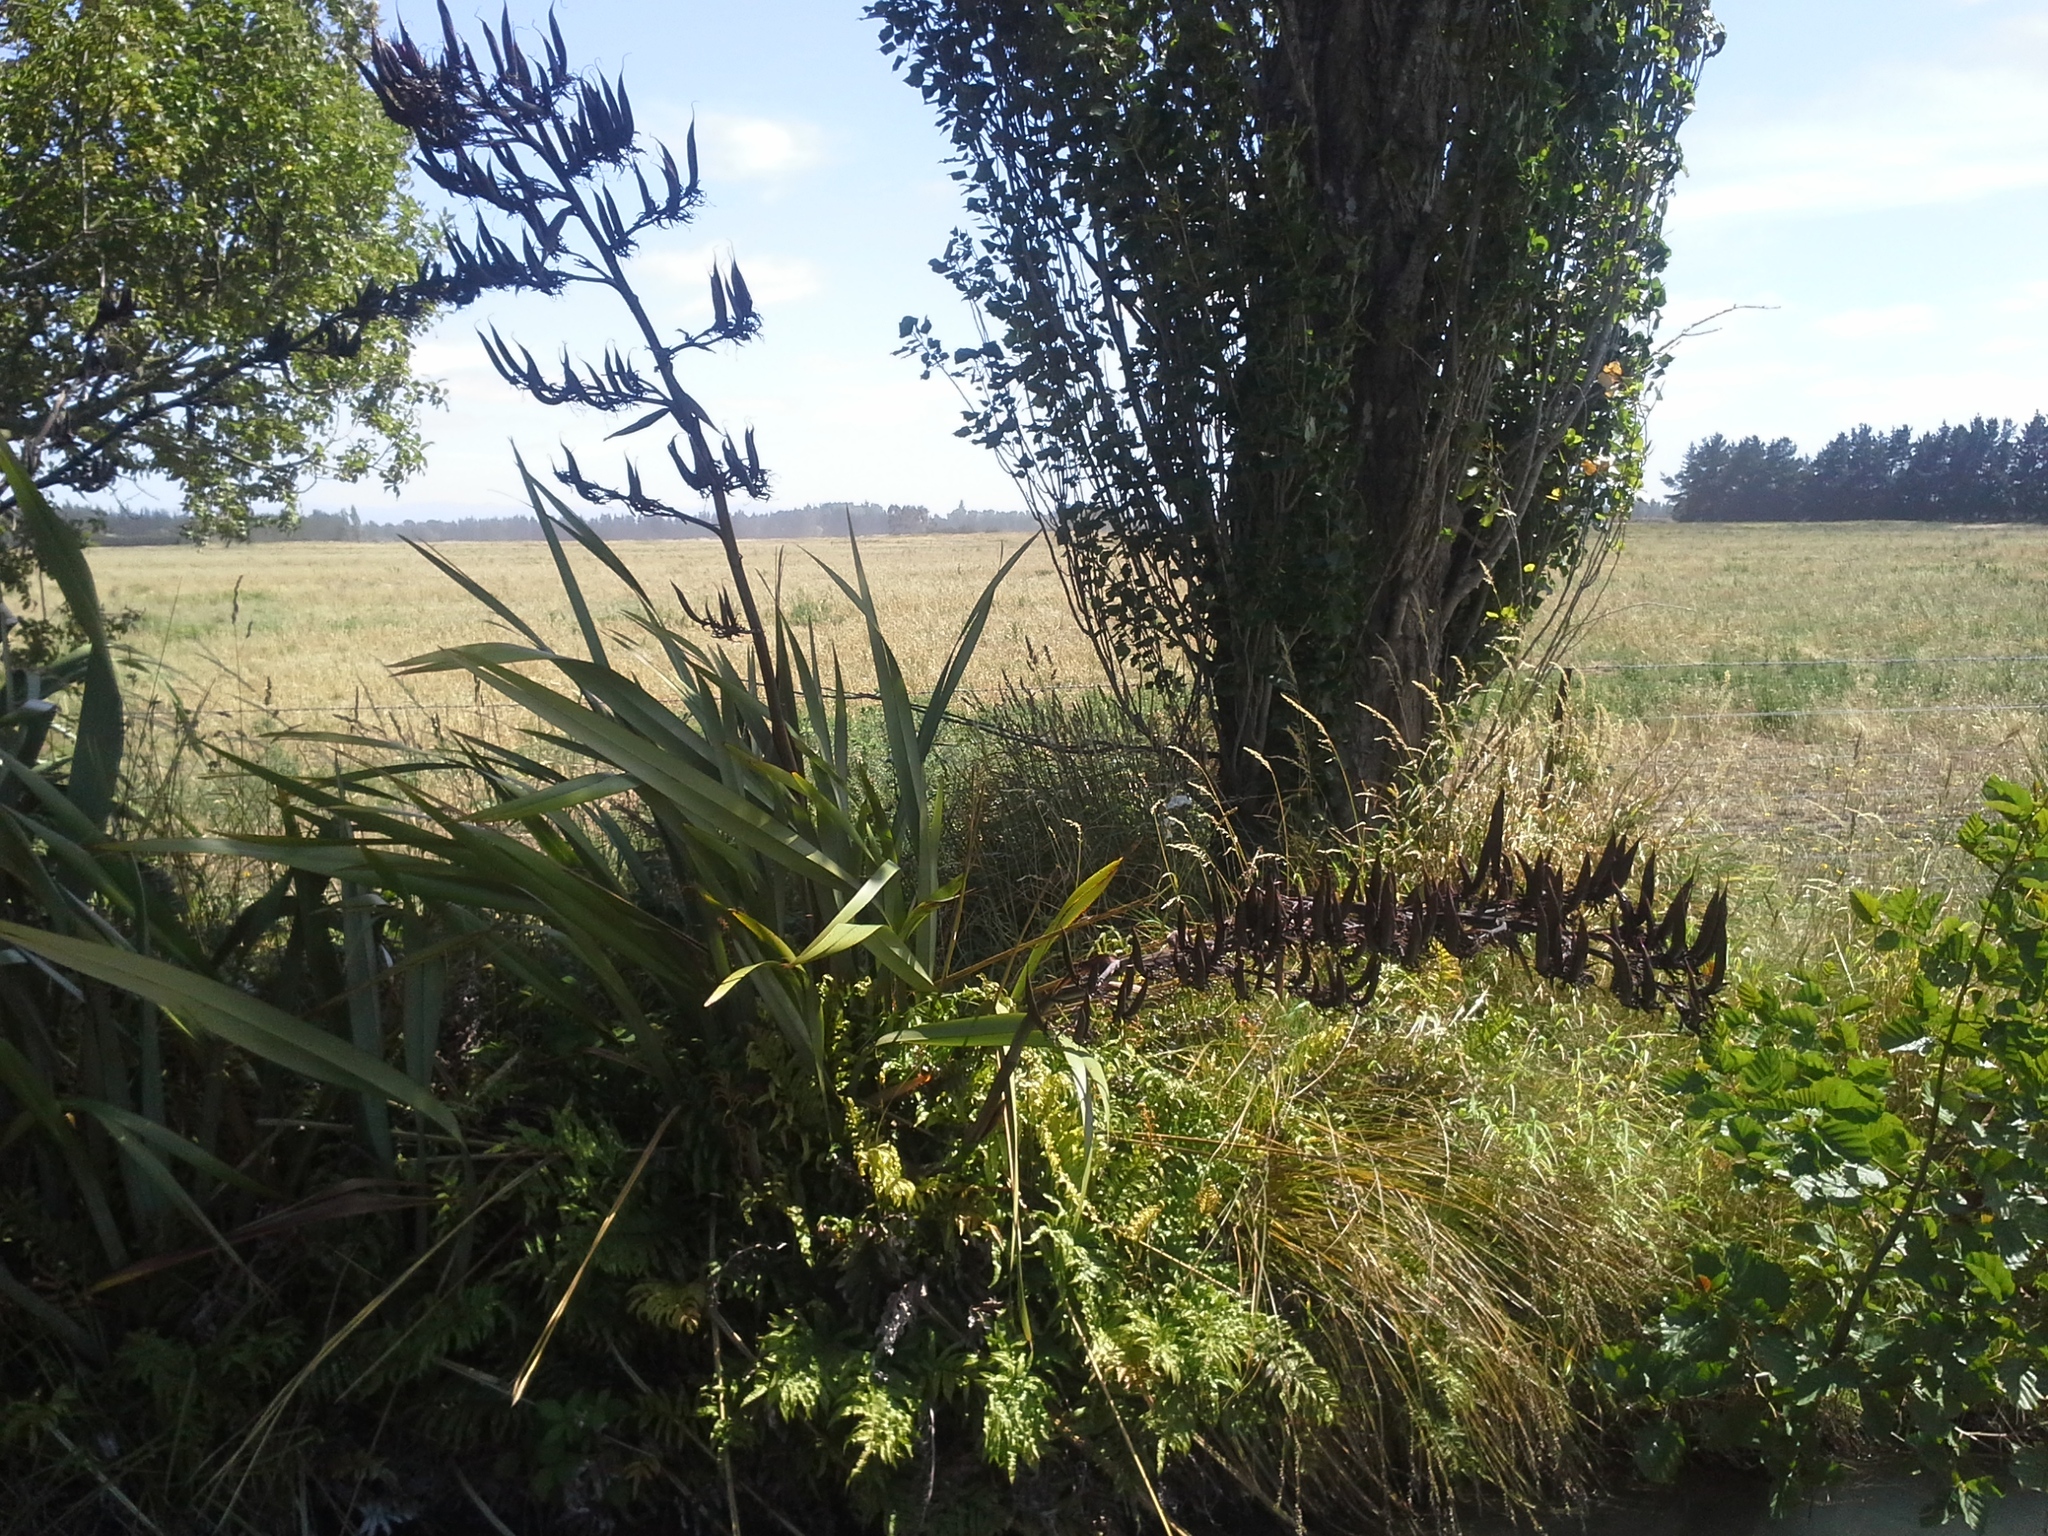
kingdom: Plantae
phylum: Tracheophyta
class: Liliopsida
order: Asparagales
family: Asphodelaceae
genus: Phormium
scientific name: Phormium tenax
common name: New zealand flax
